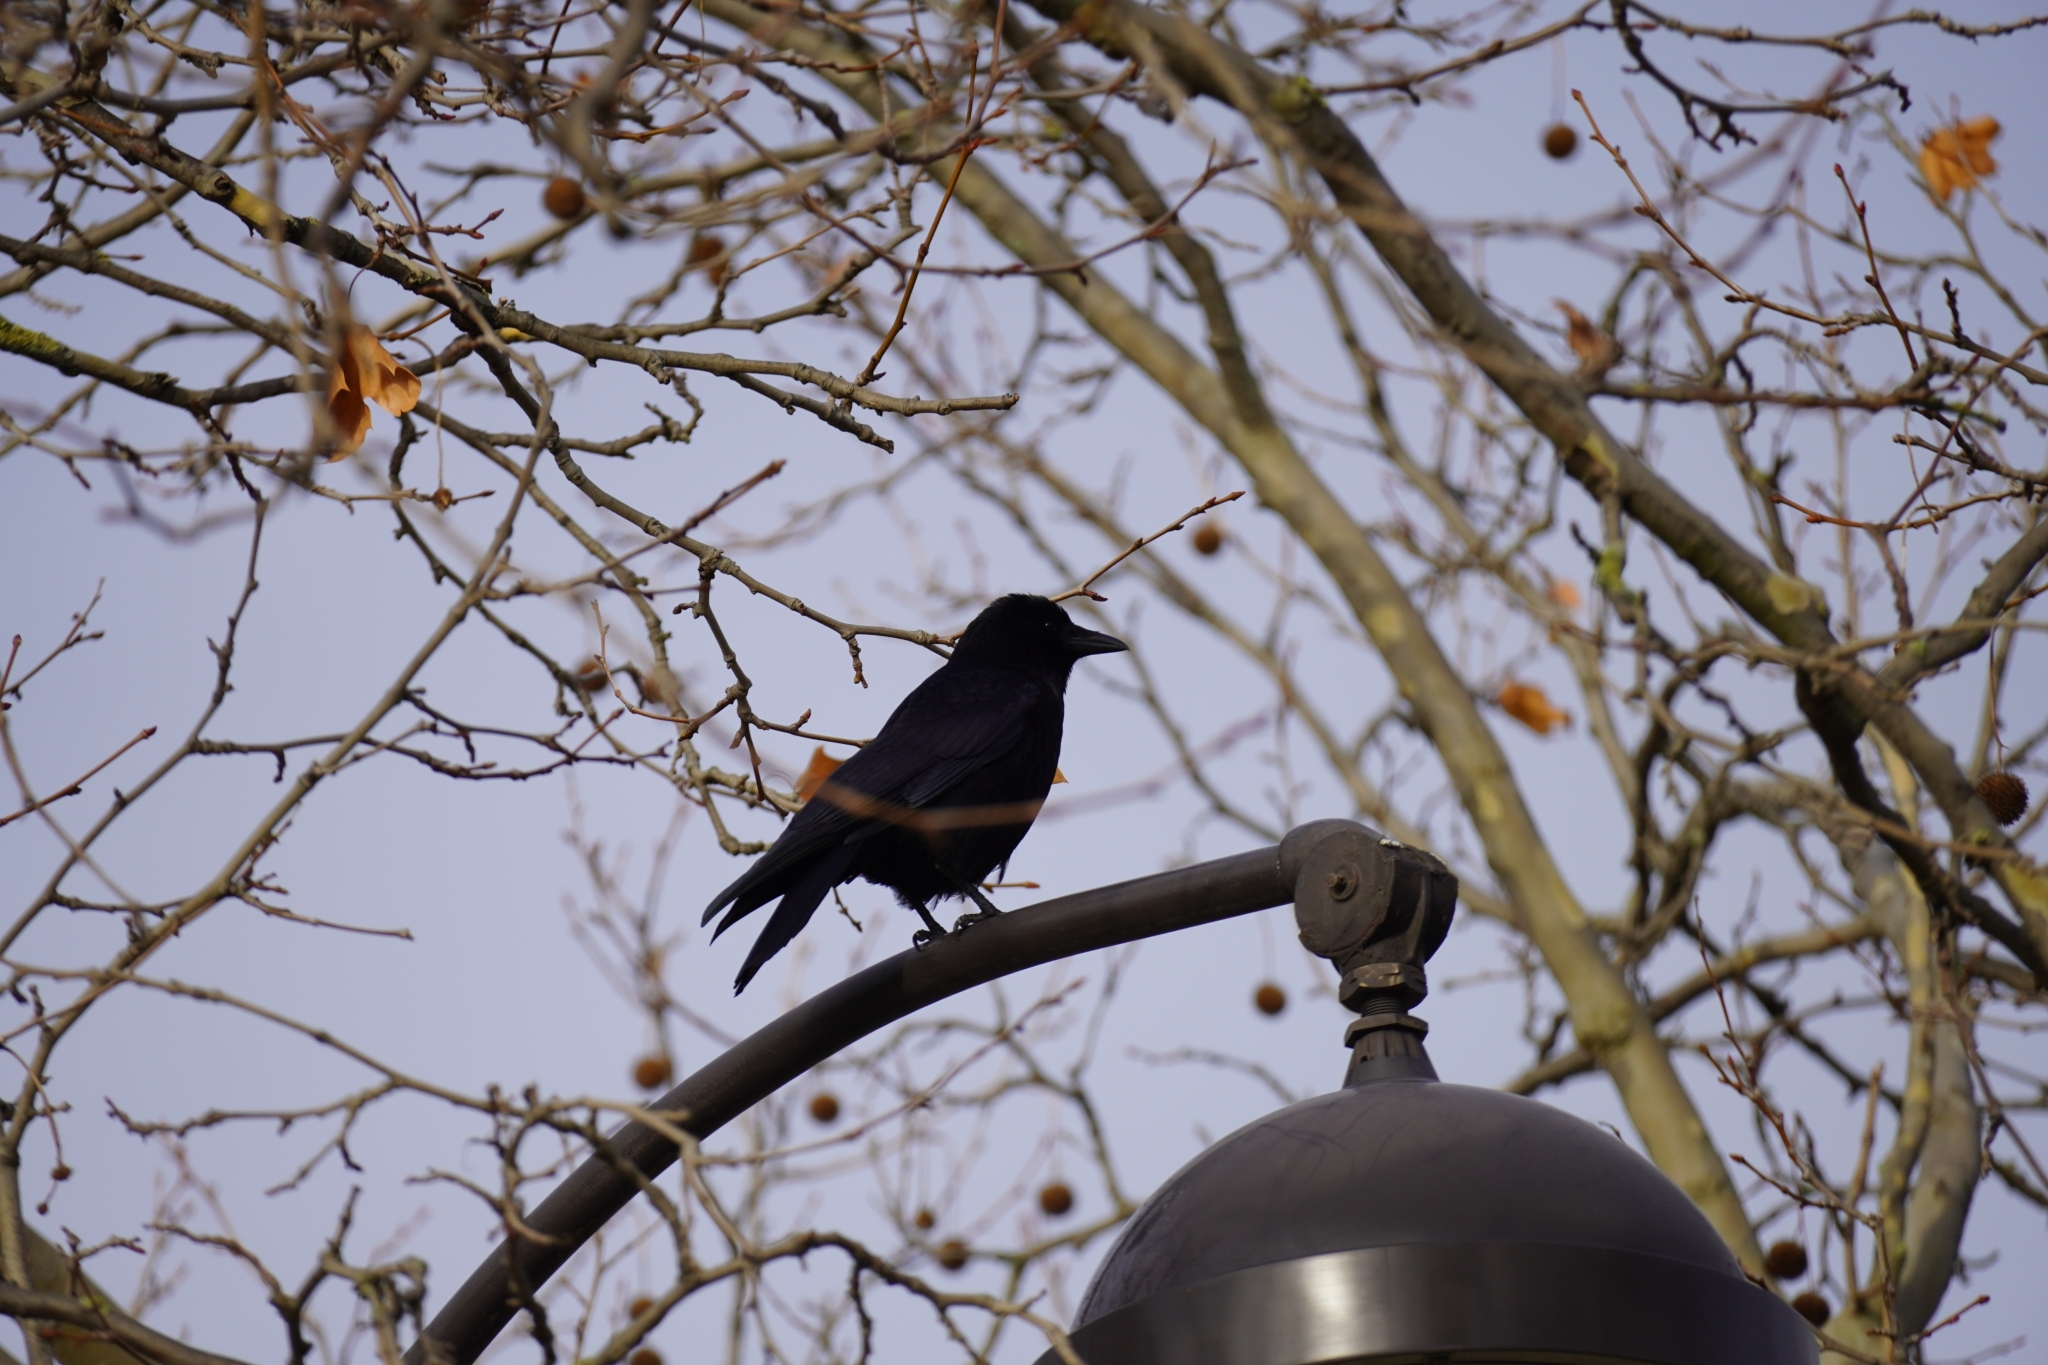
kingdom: Animalia
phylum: Chordata
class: Aves
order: Passeriformes
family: Corvidae
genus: Corvus
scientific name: Corvus corone
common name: Carrion crow
